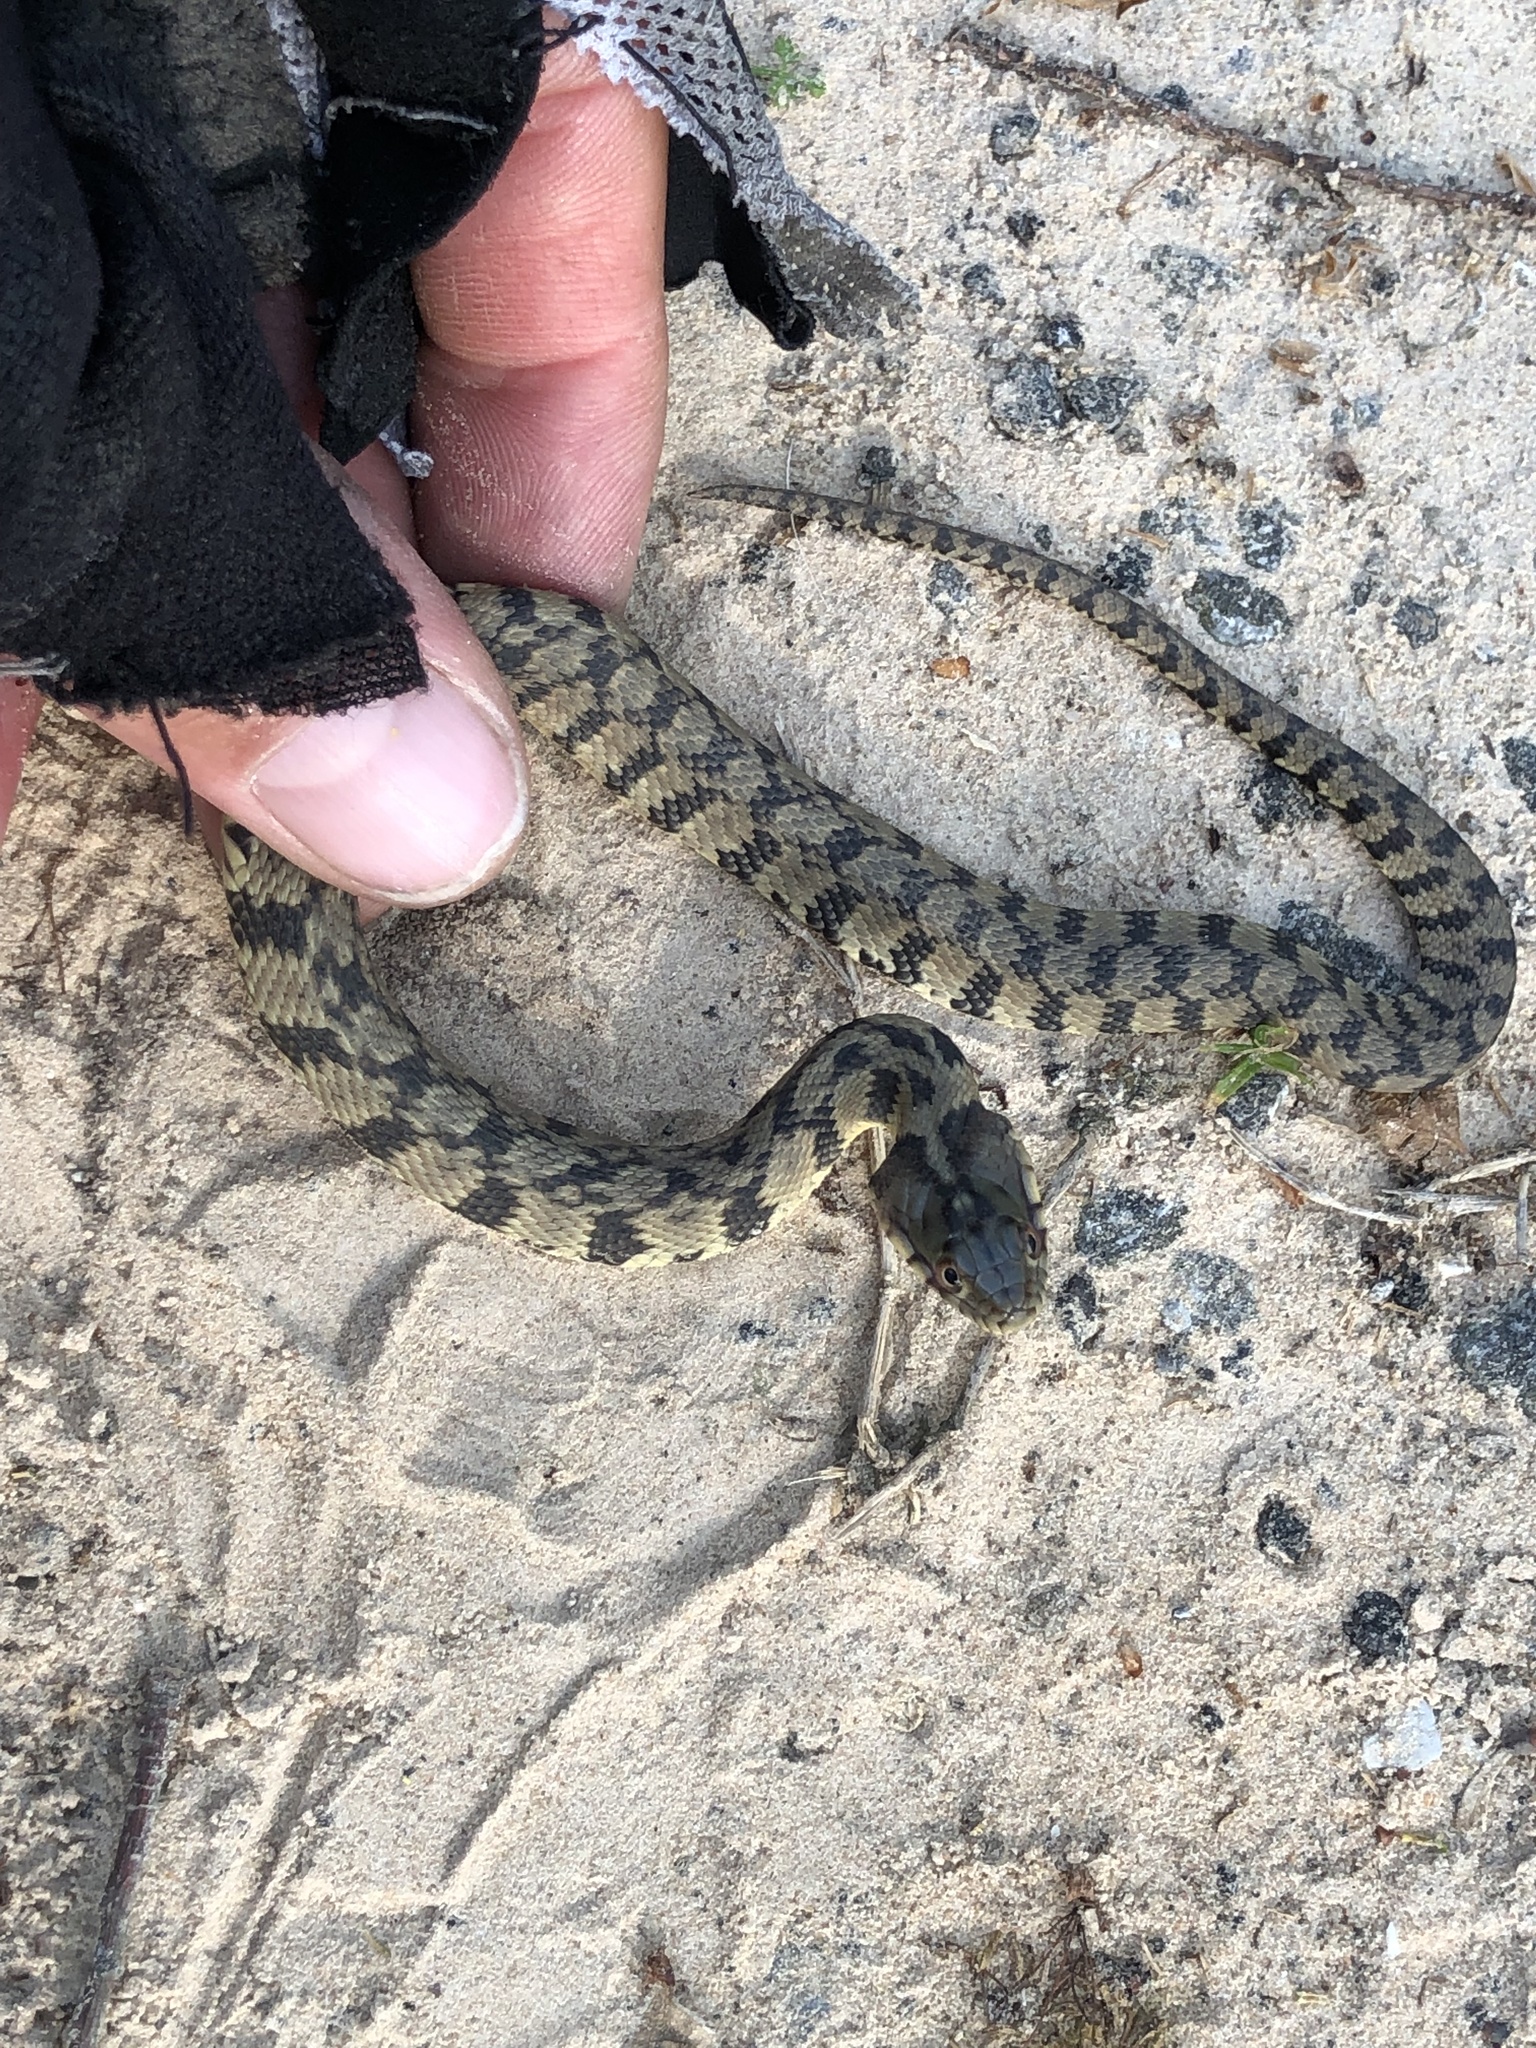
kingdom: Animalia
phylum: Chordata
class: Squamata
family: Colubridae
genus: Nerodia
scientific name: Nerodia rhombifer
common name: Diamondback water snake
